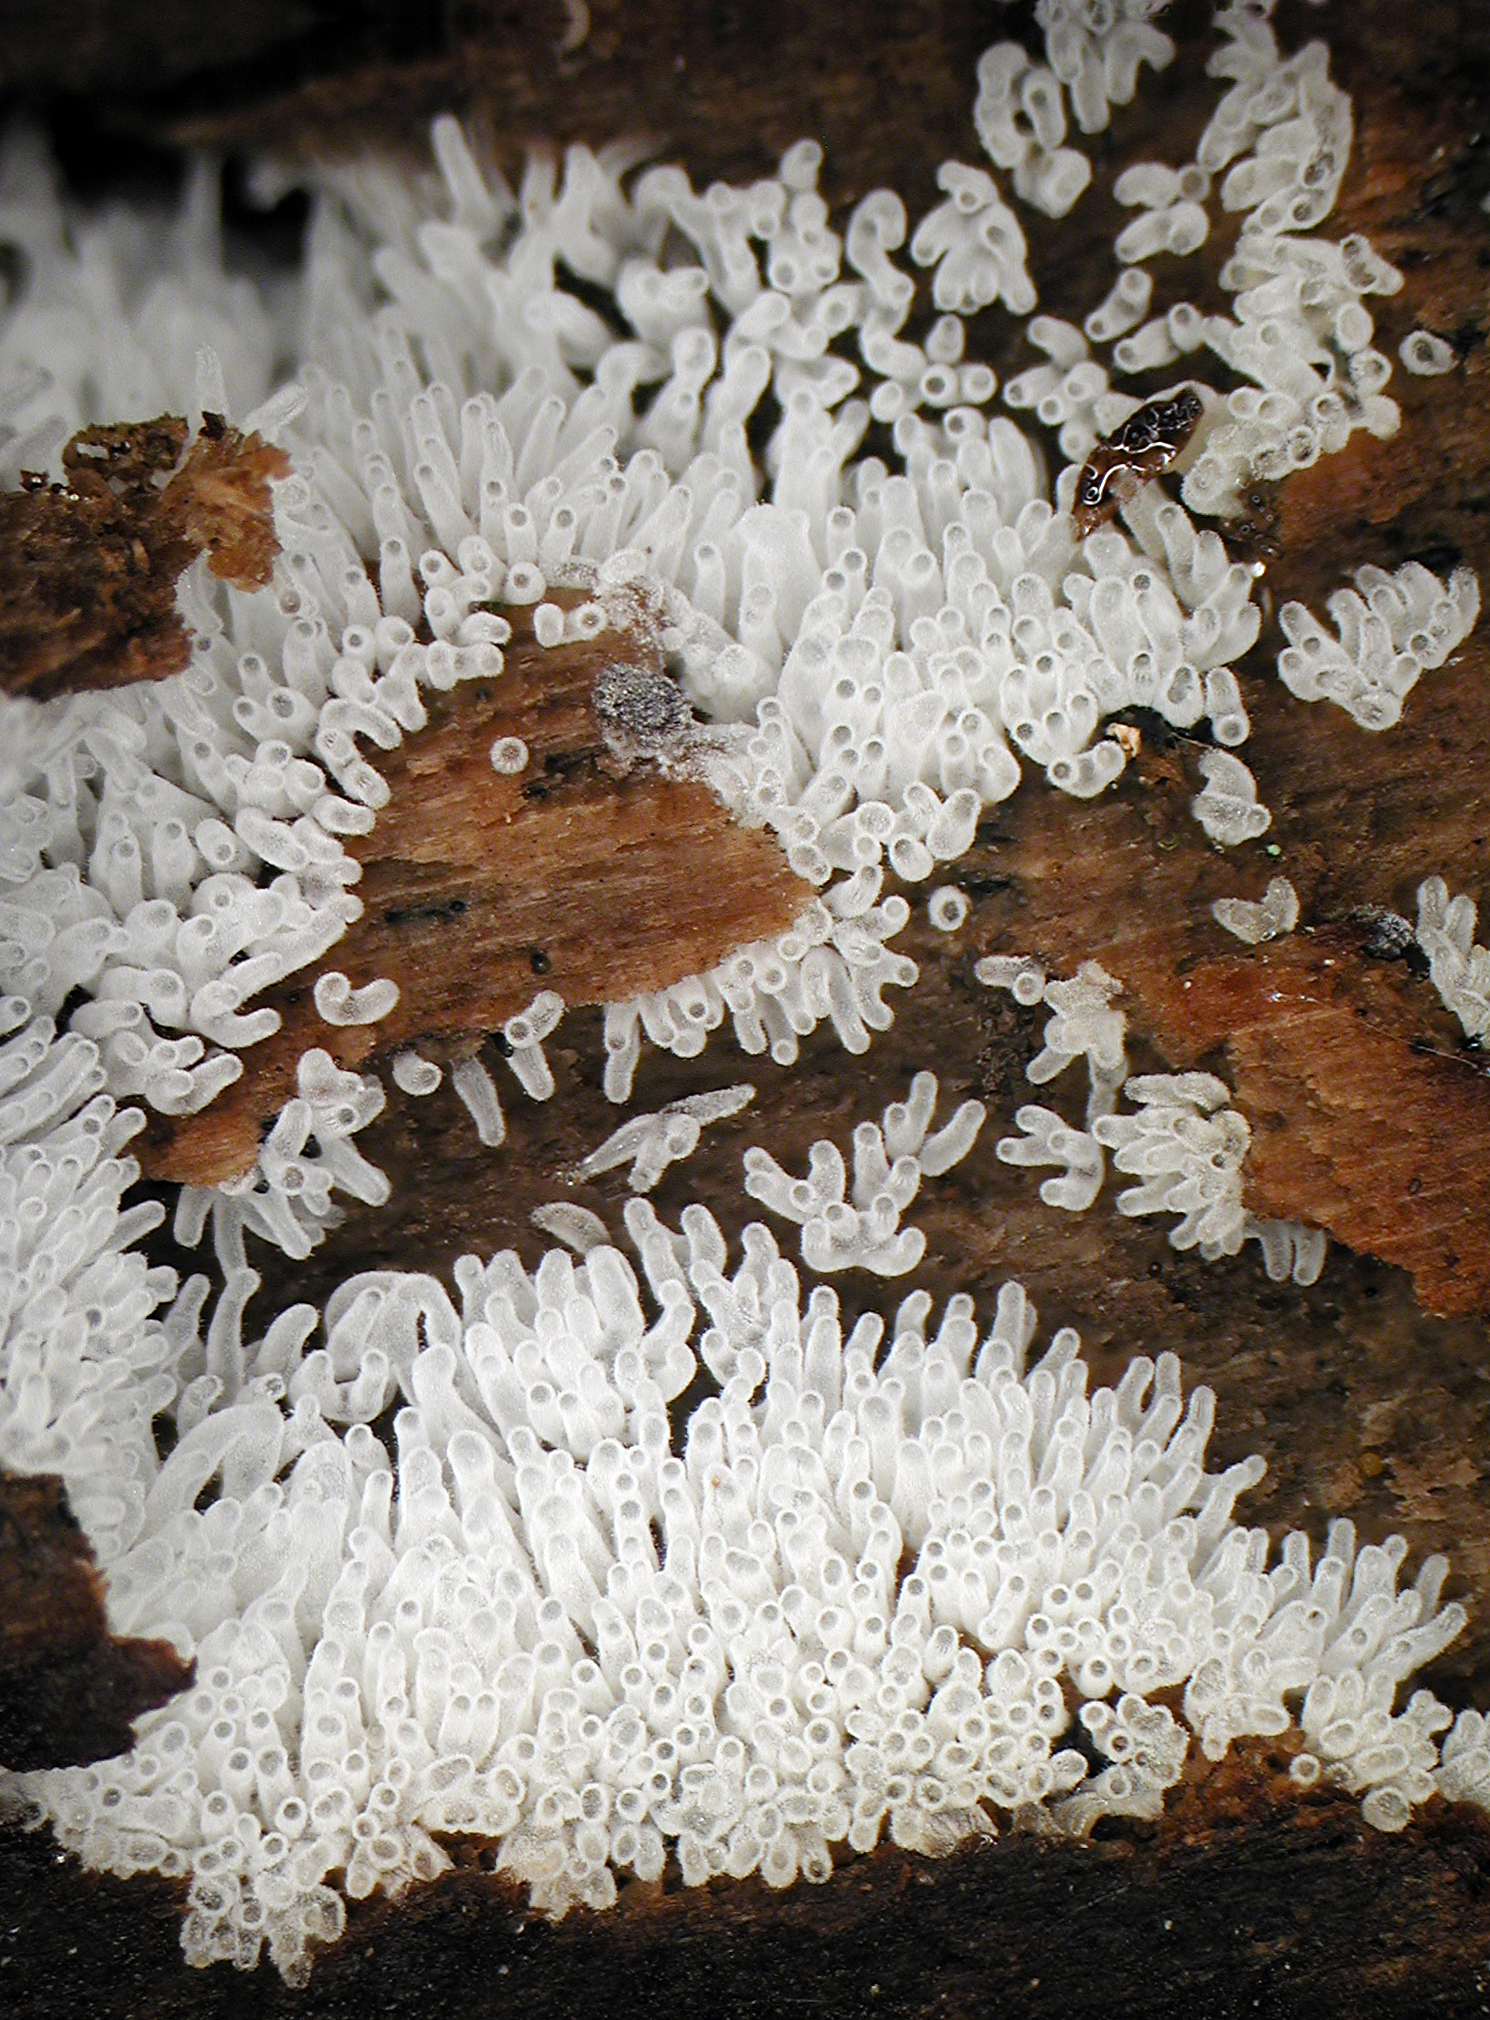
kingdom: Protozoa
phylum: Mycetozoa
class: Protosteliomycetes
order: Ceratiomyxales
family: Ceratiomyxaceae
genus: Ceratiomyxa
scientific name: Ceratiomyxa fruticulosa
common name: Honeycomb coral slime mold
